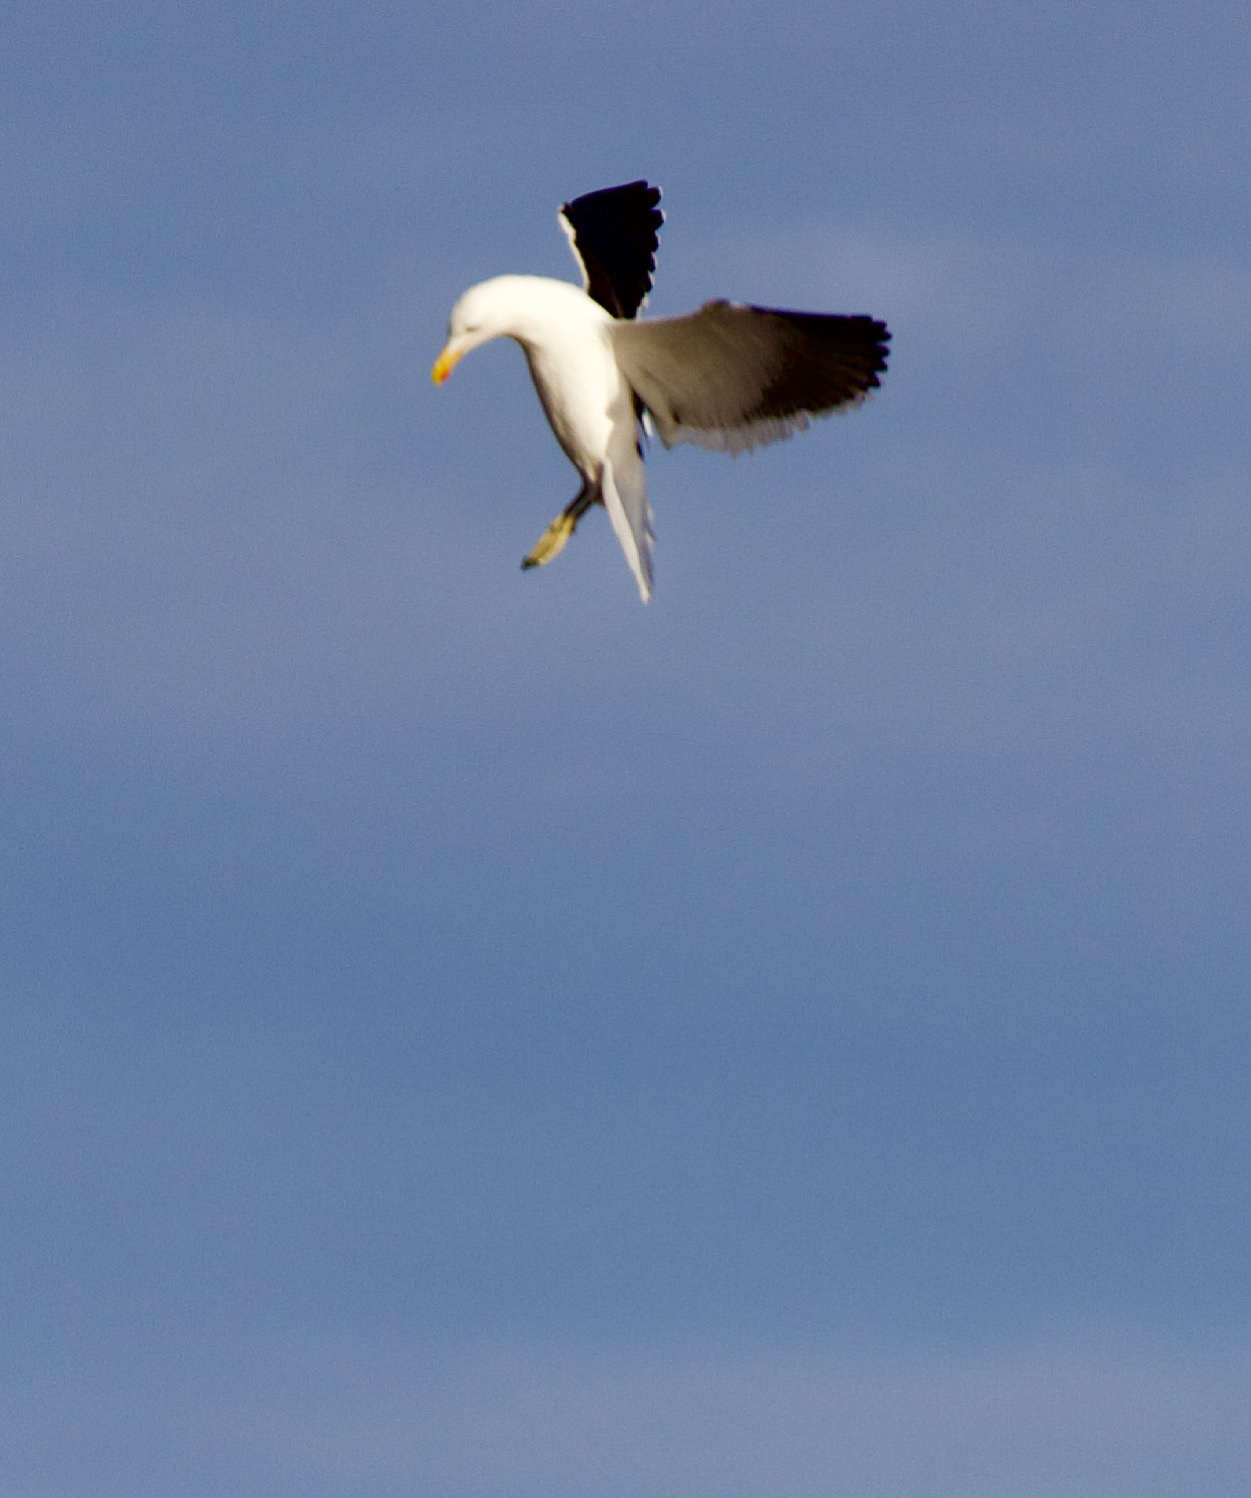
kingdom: Animalia
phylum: Chordata
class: Aves
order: Charadriiformes
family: Laridae
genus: Larus
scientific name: Larus dominicanus
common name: Kelp gull
